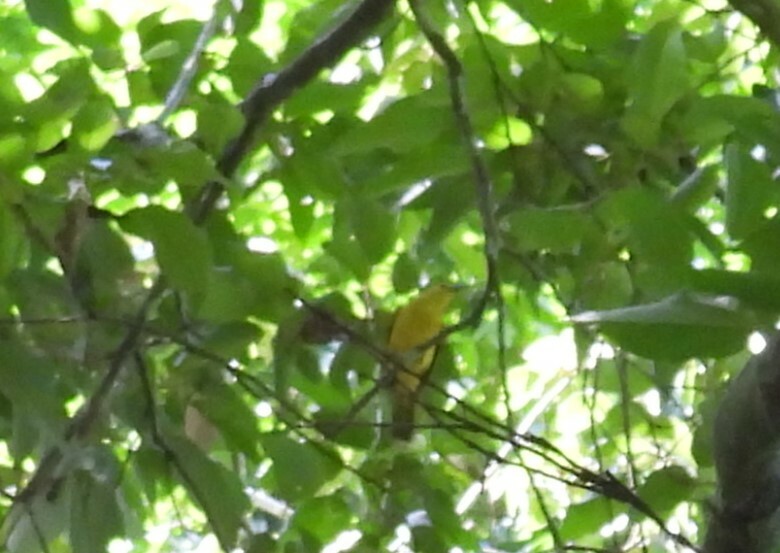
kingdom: Animalia
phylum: Chordata
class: Aves
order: Passeriformes
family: Pycnonotidae
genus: Acritillas
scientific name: Acritillas indica
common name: Yellow-browed bulbul
